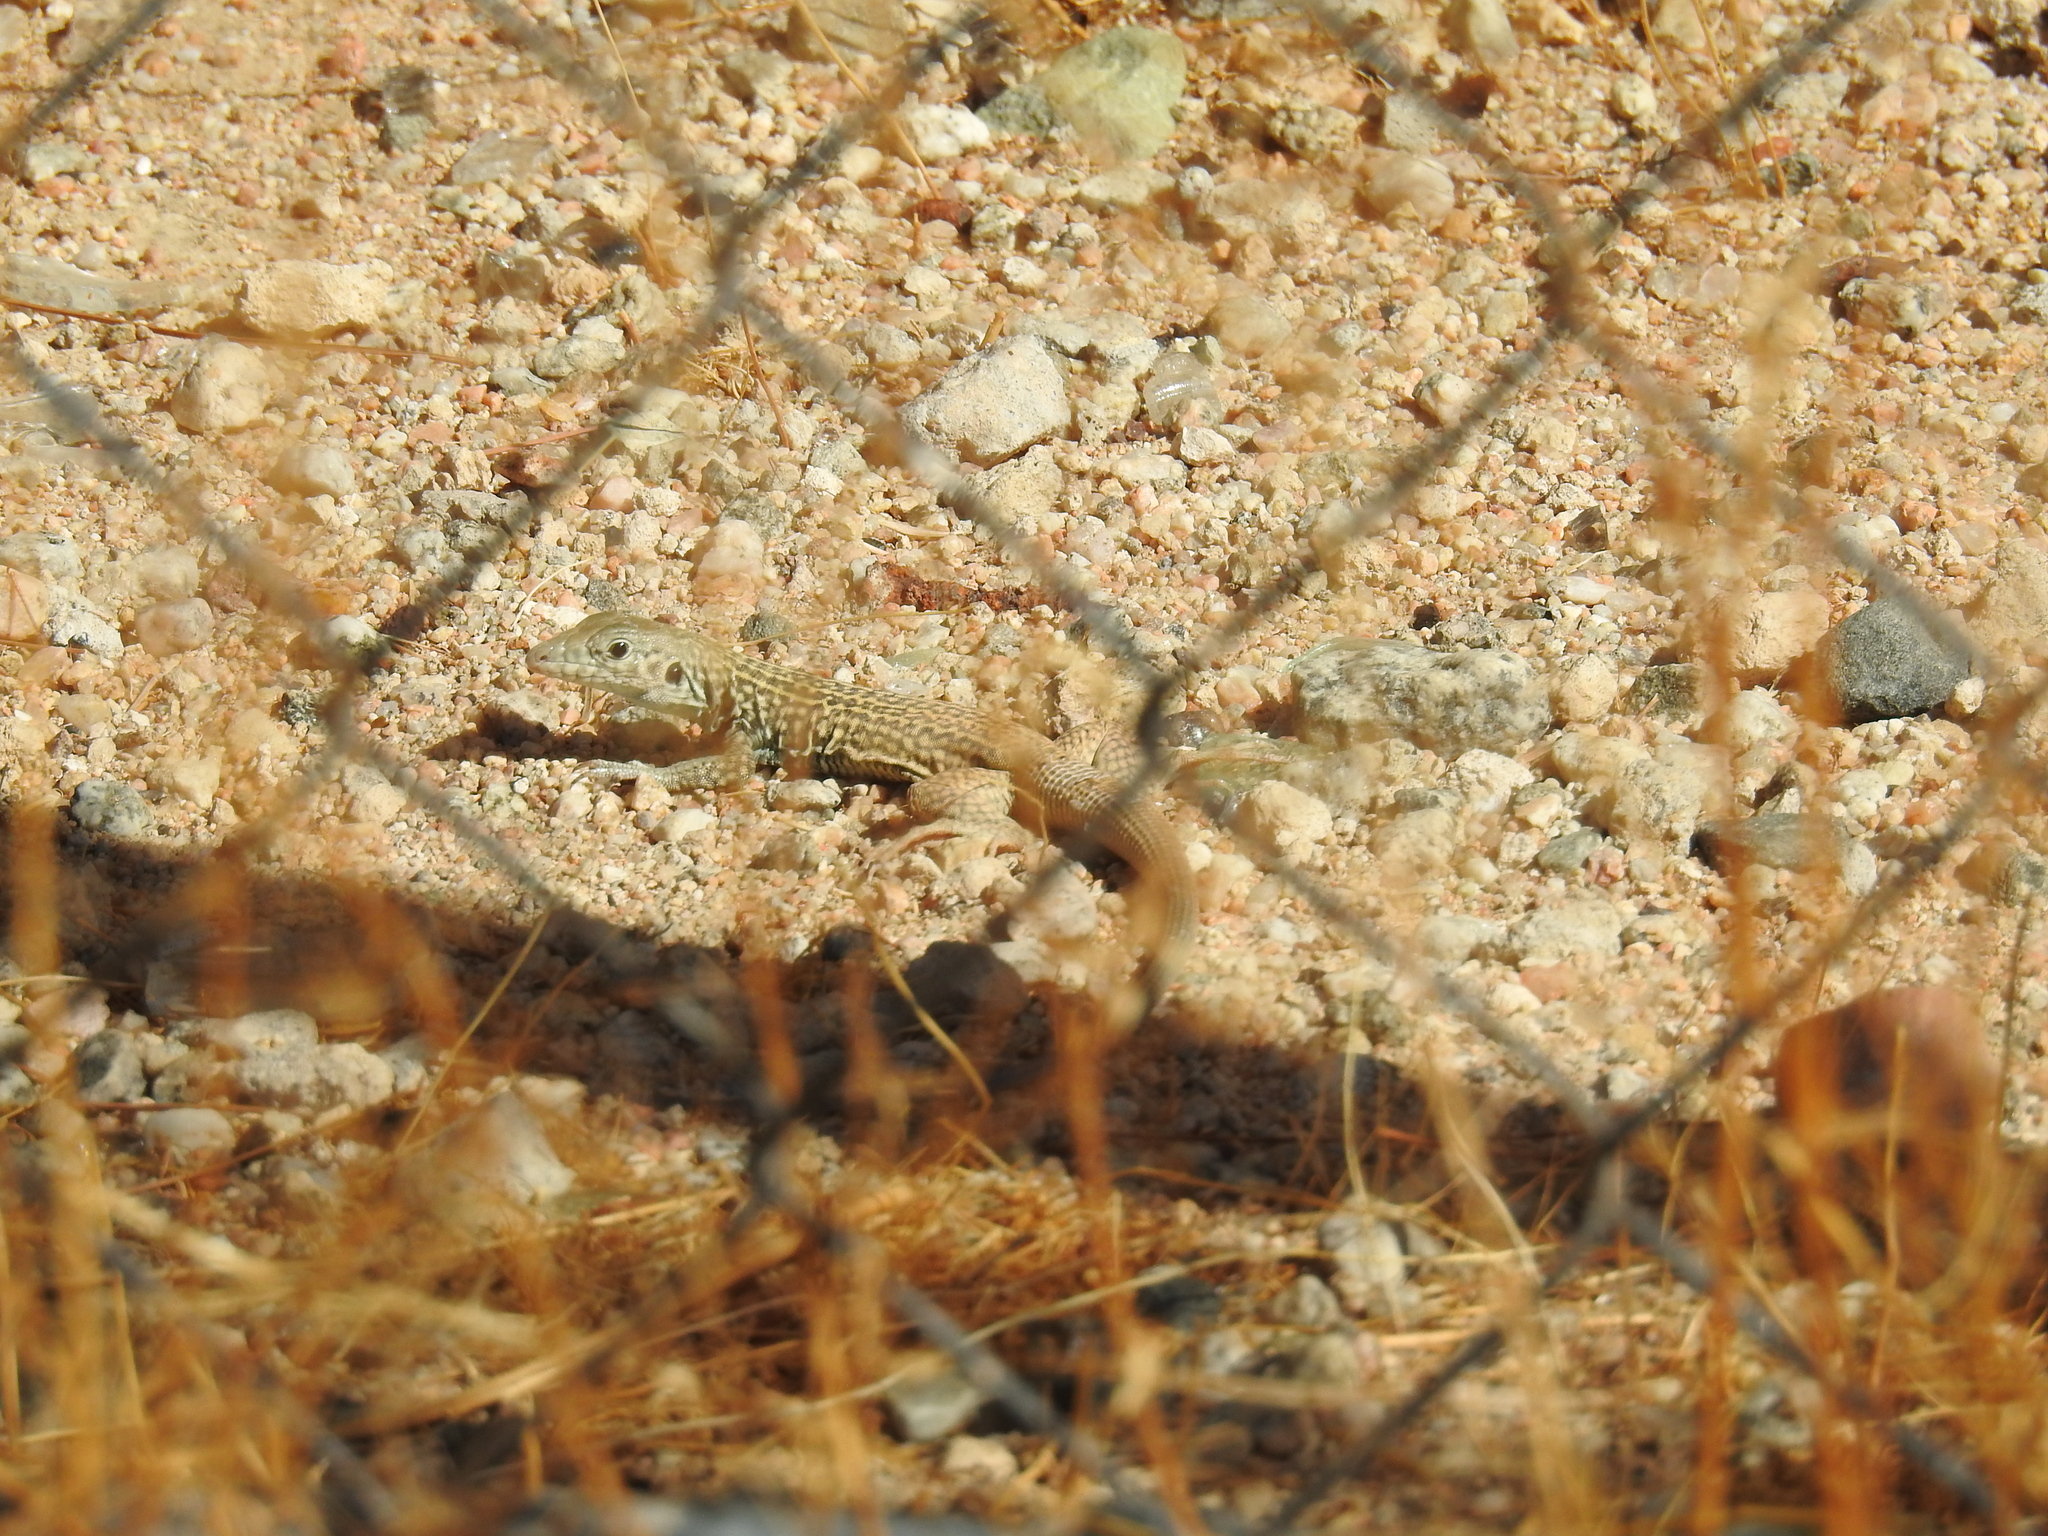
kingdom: Animalia
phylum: Chordata
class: Squamata
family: Teiidae
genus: Aspidoscelis
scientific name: Aspidoscelis tigris
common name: Tiger whiptail
